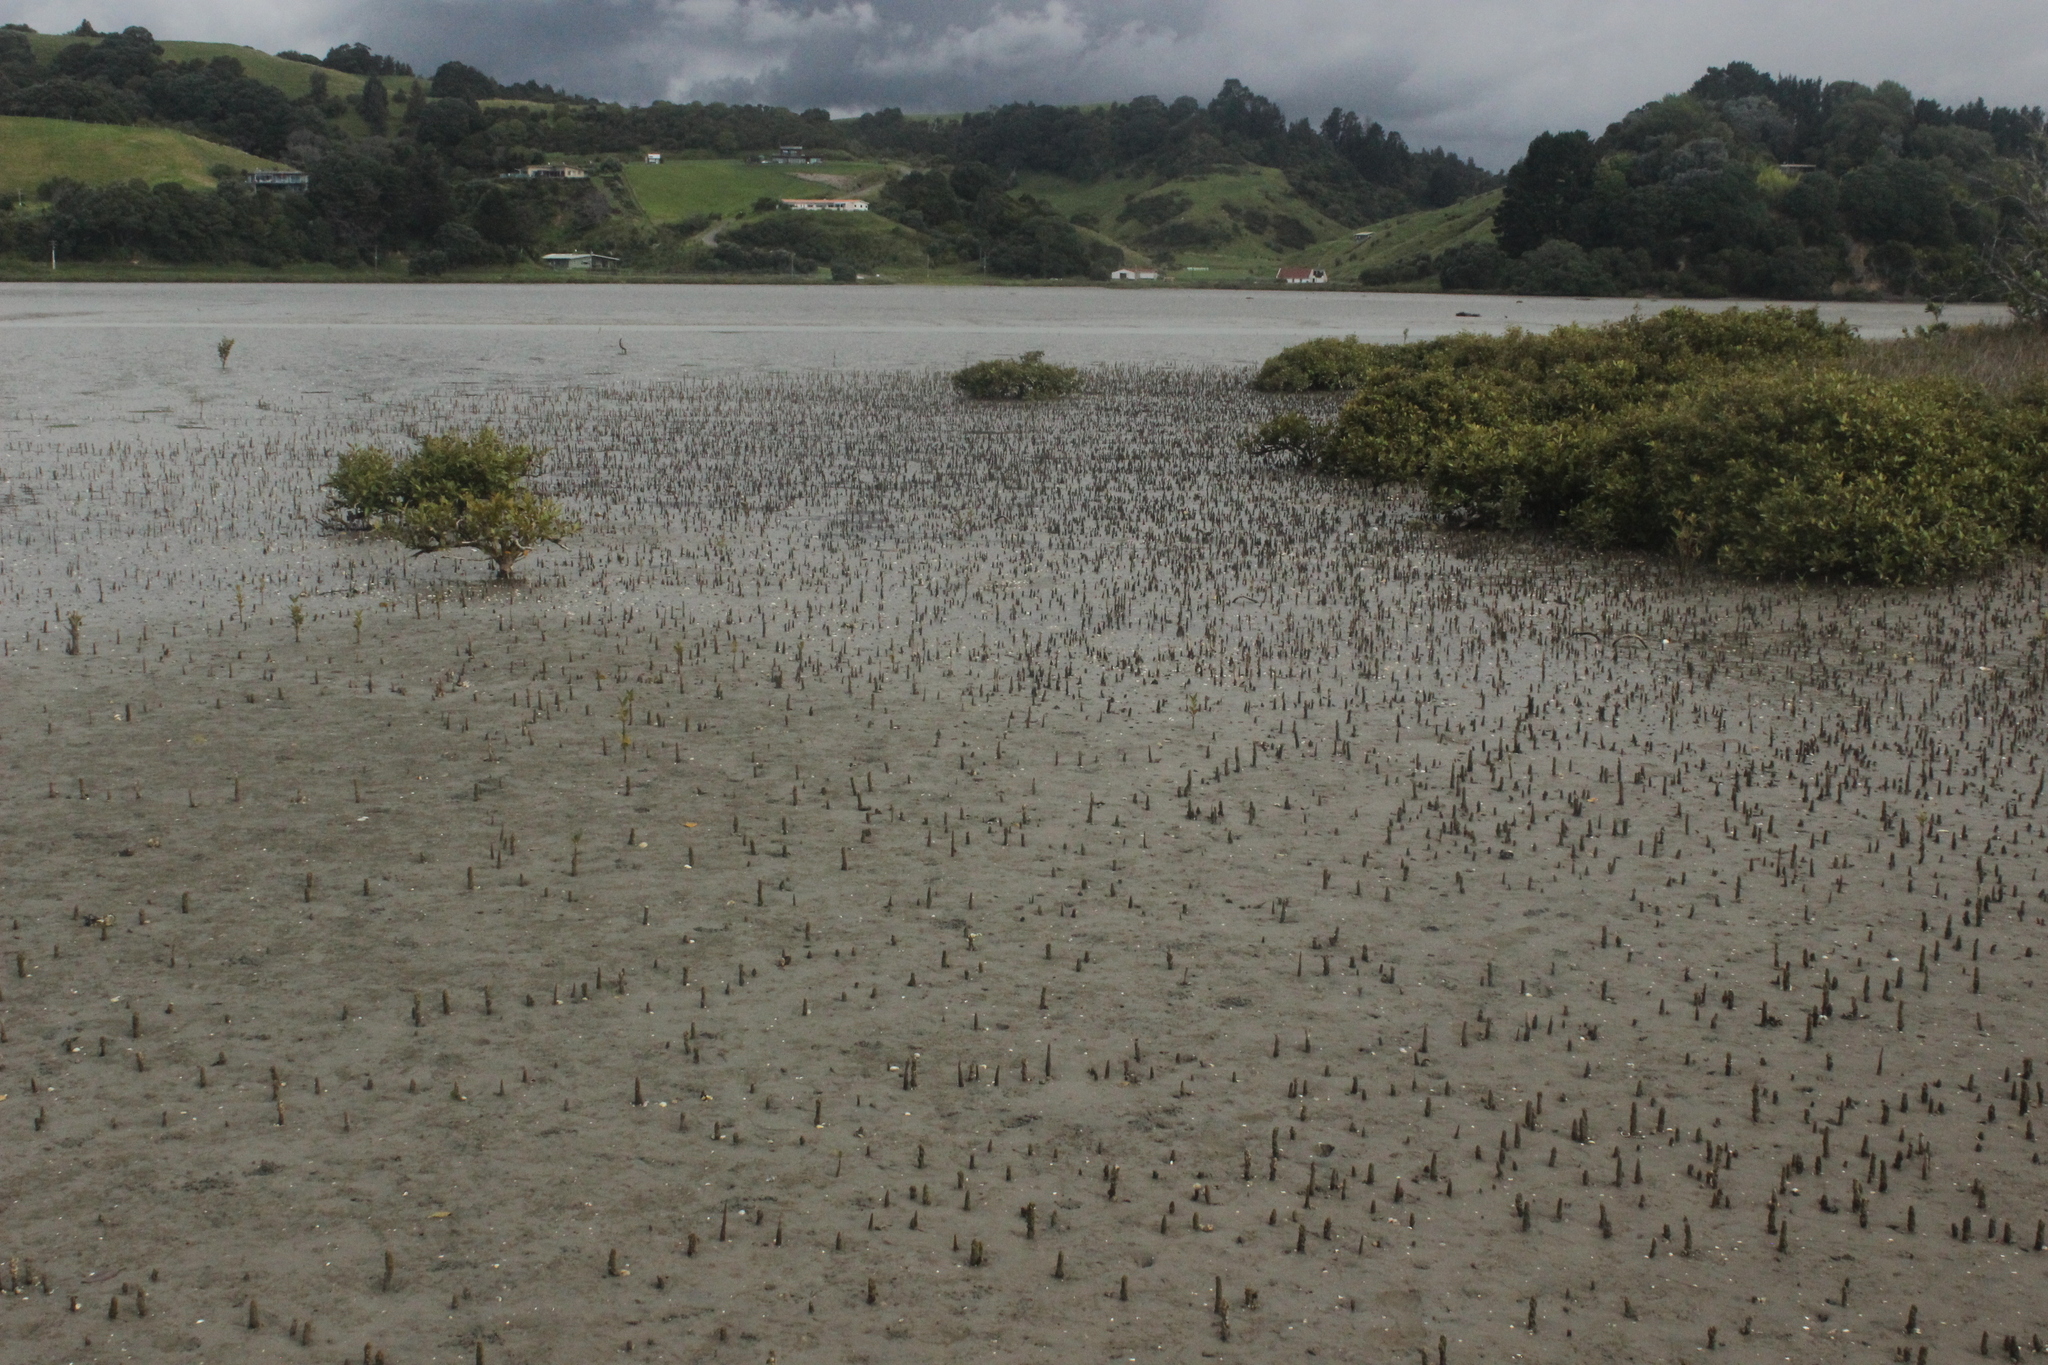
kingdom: Plantae
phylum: Tracheophyta
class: Magnoliopsida
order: Lamiales
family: Acanthaceae
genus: Avicennia
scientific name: Avicennia marina
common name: Gray mangrove
